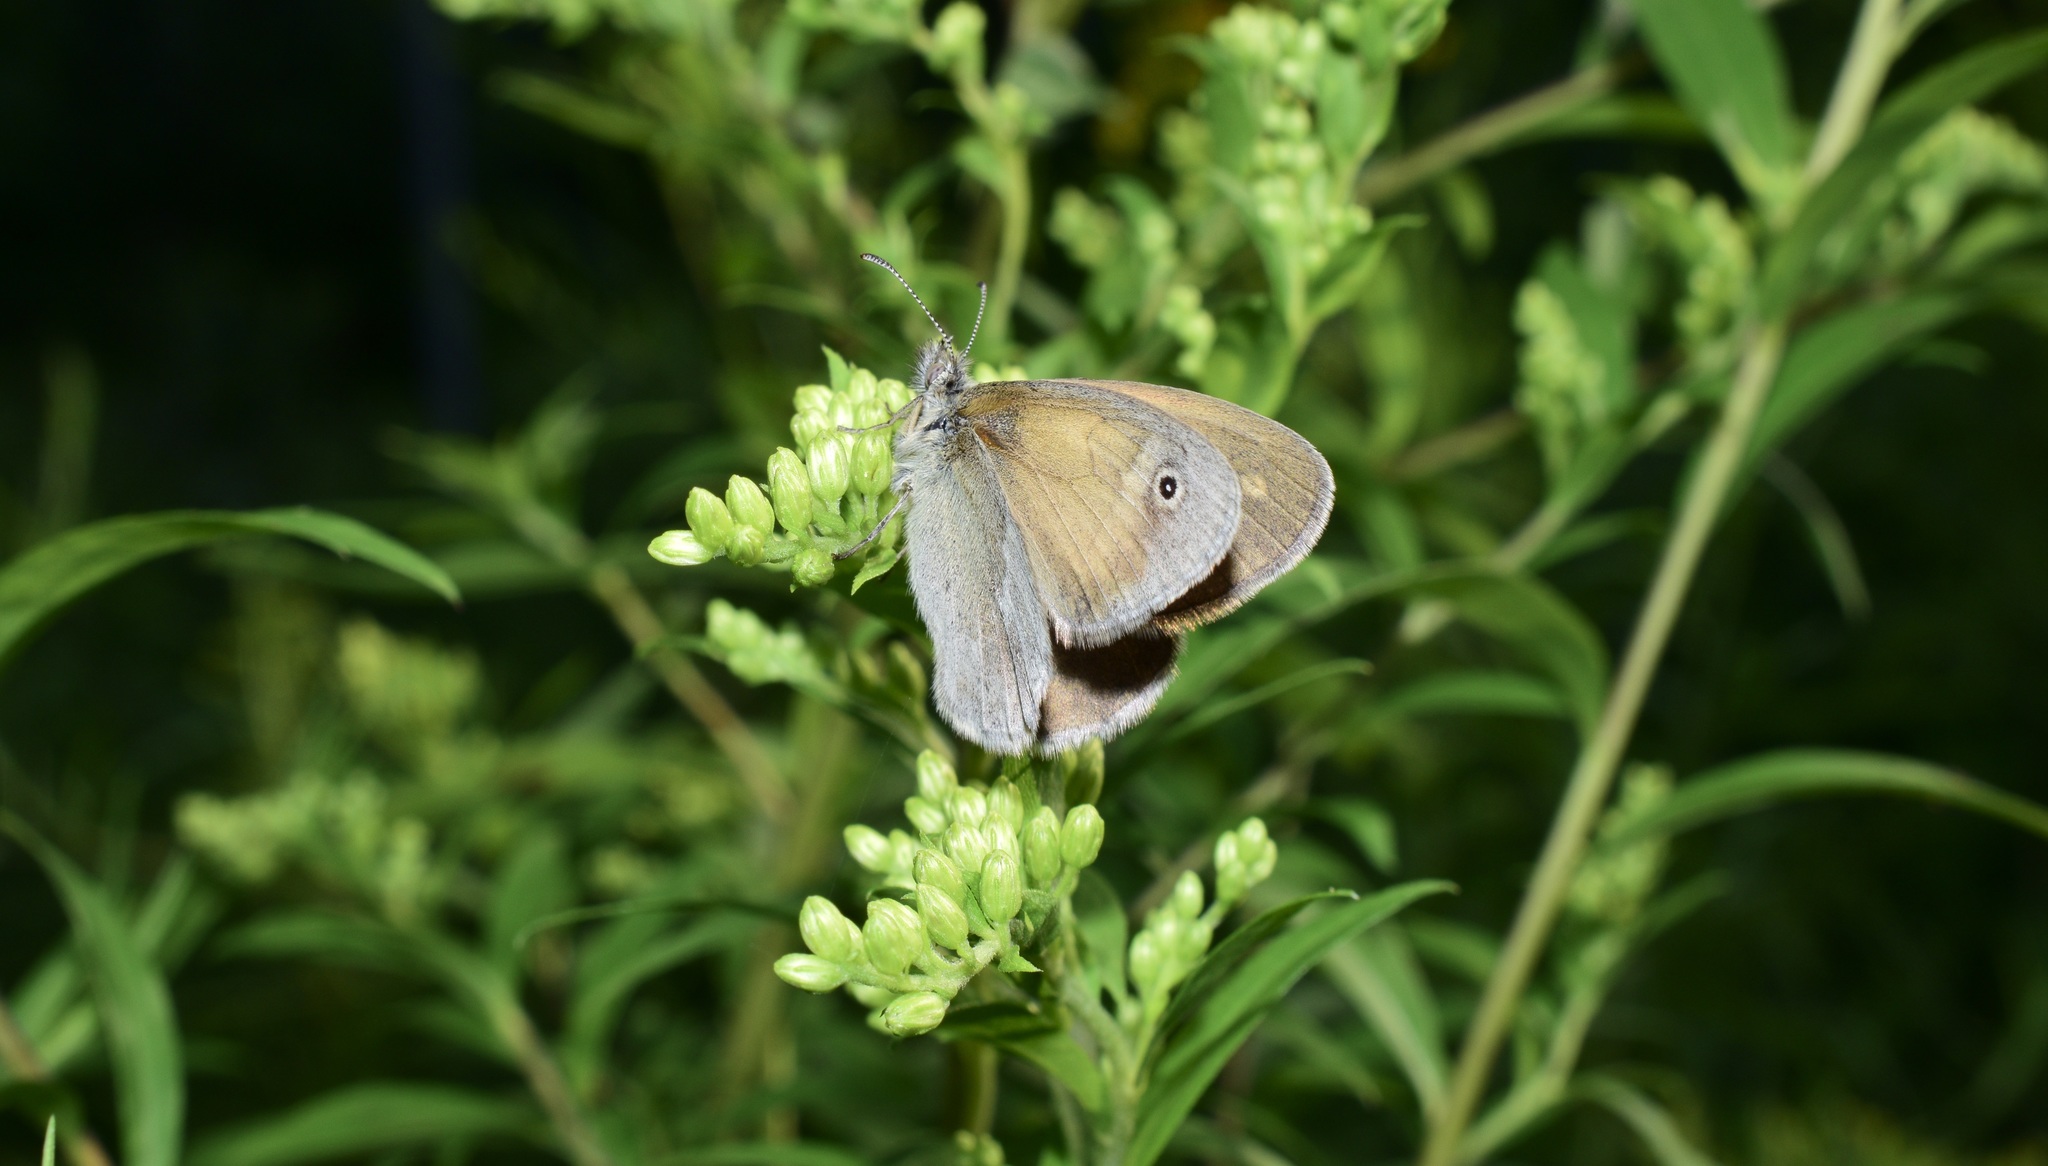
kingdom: Animalia
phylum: Arthropoda
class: Insecta
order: Lepidoptera
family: Nymphalidae
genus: Coenonympha
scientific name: Coenonympha california
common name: Common ringlet
